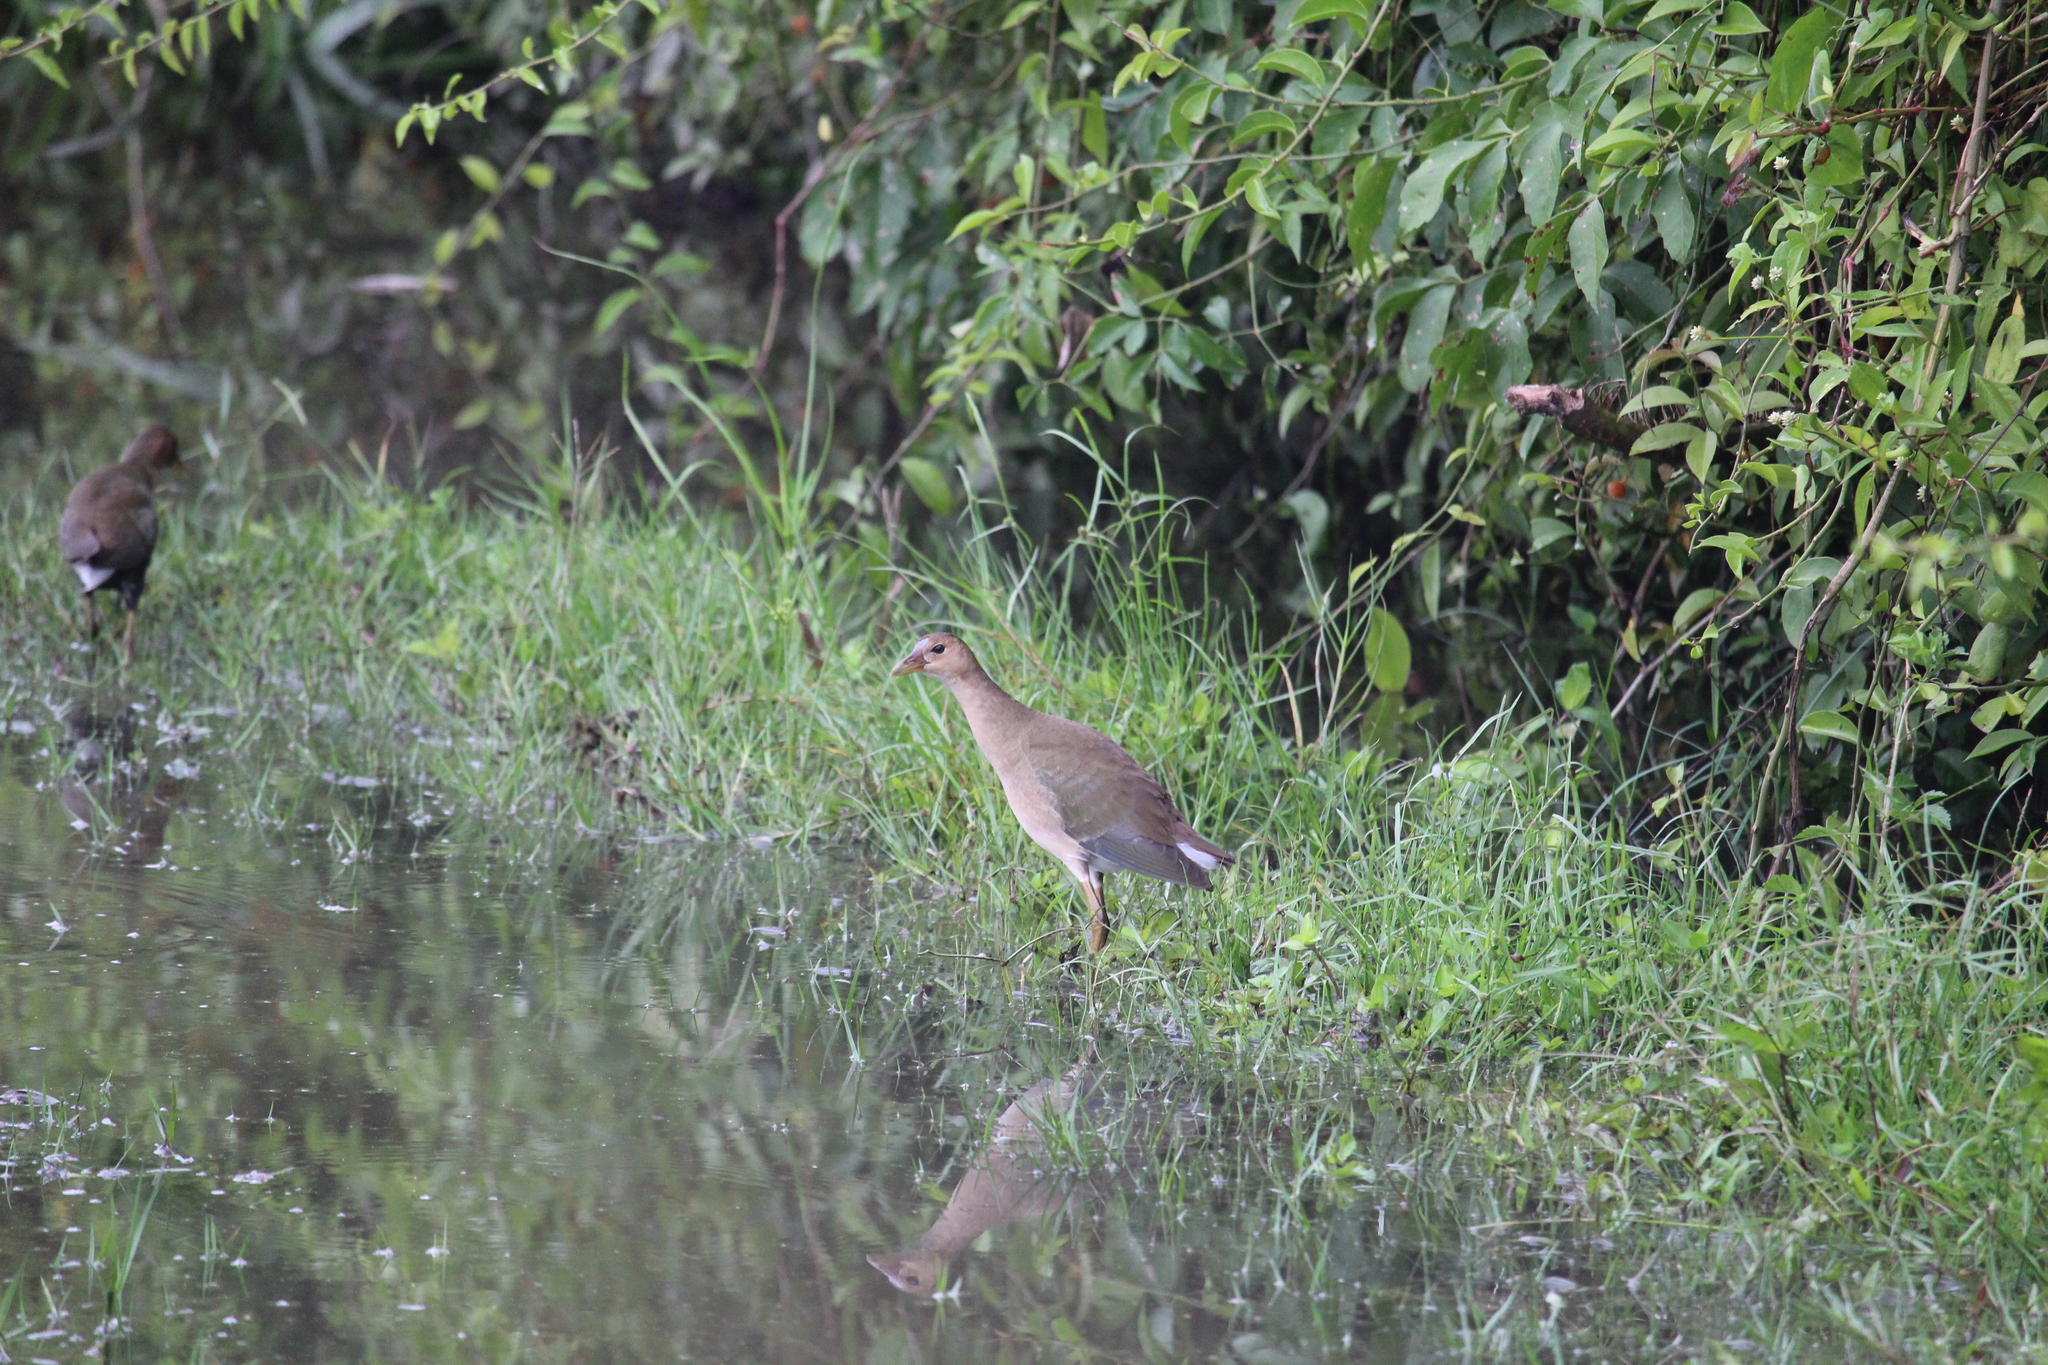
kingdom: Animalia
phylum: Chordata
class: Aves
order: Gruiformes
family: Rallidae
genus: Porphyrio
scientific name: Porphyrio martinica
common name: Purple gallinule
